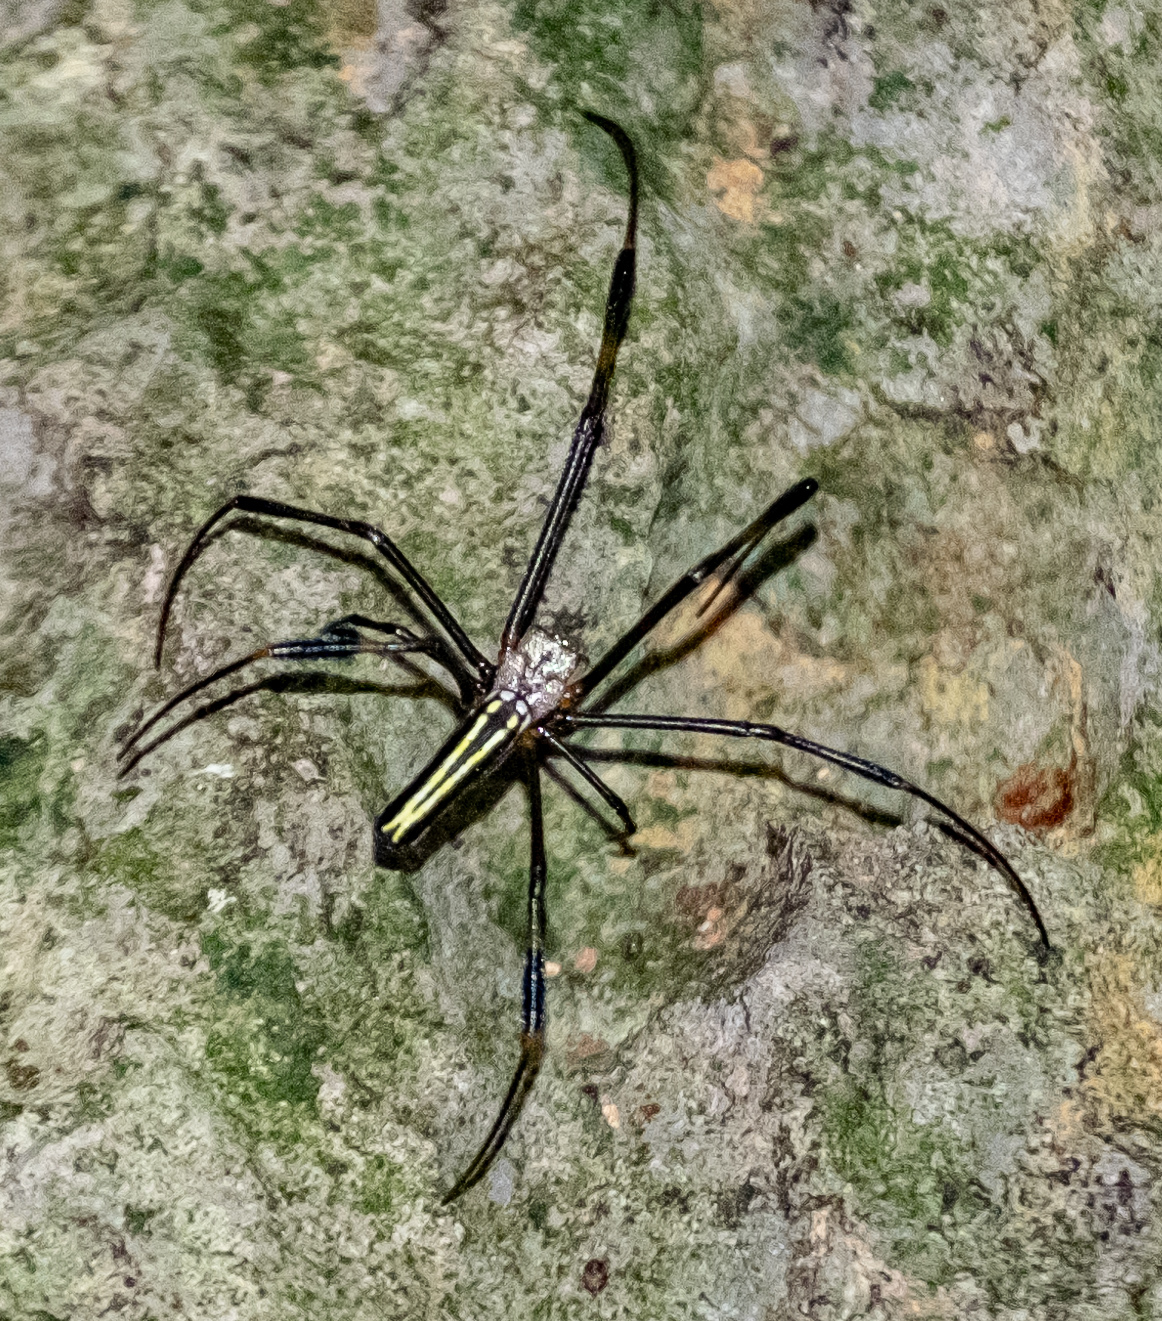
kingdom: Animalia
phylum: Arthropoda
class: Arachnida
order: Araneae
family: Araneidae
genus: Nephila
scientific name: Nephila pilipes
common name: Giant golden orb weaver
